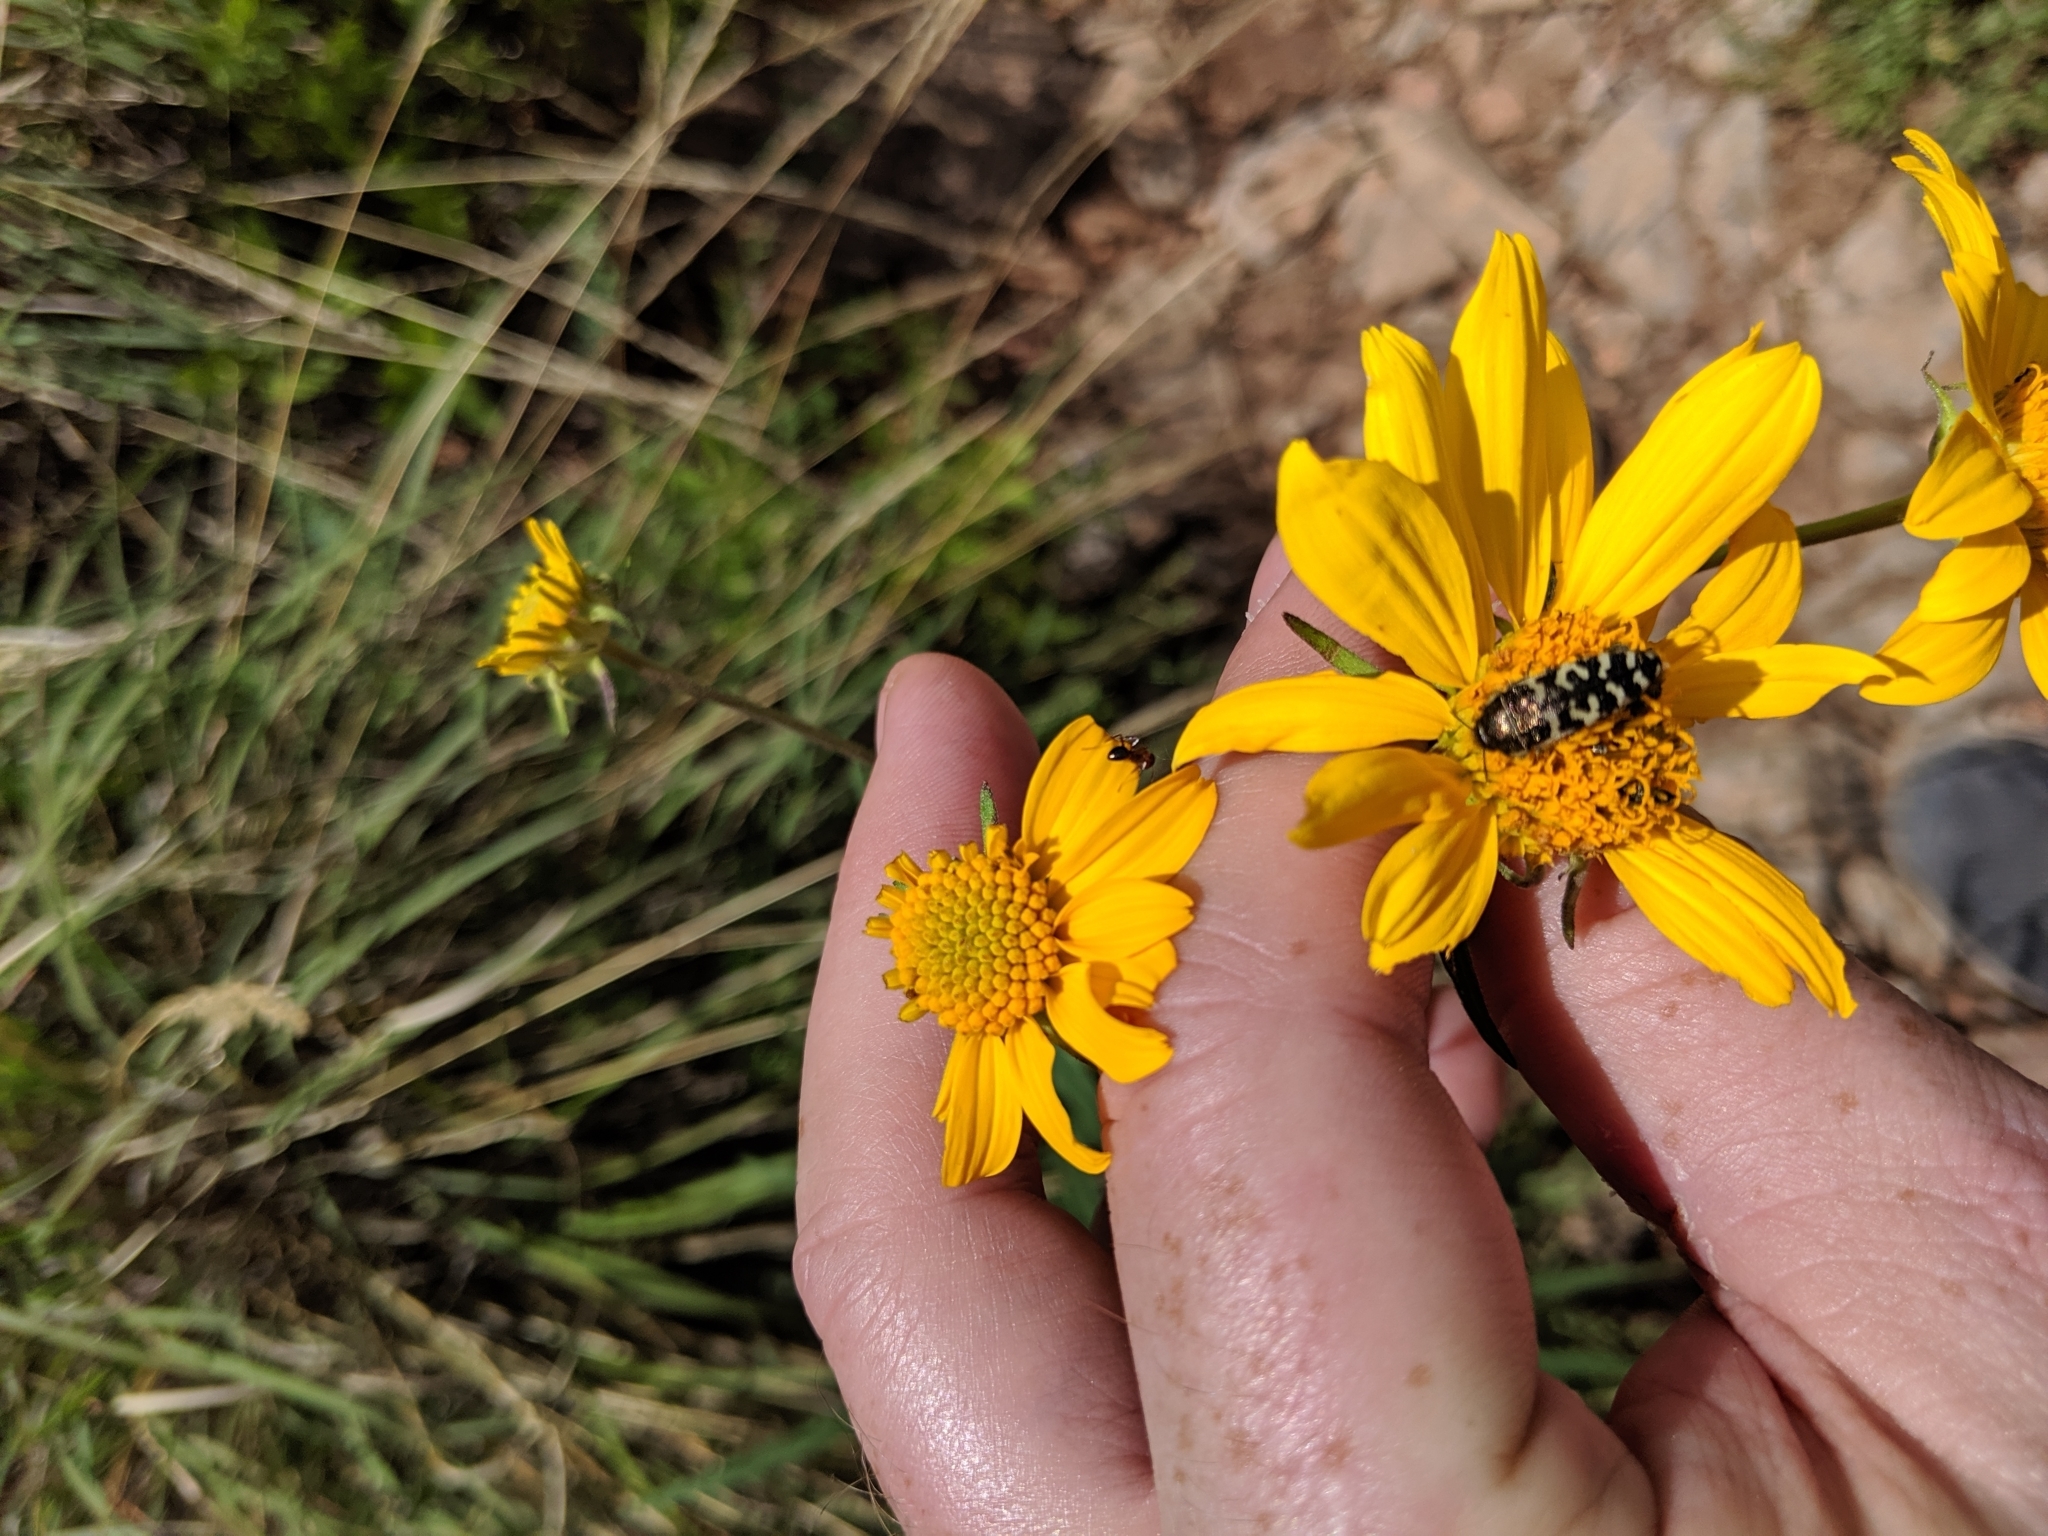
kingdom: Animalia
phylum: Arthropoda
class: Insecta
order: Coleoptera
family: Buprestidae
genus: Acmaeodera
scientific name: Acmaeodera decipiens
